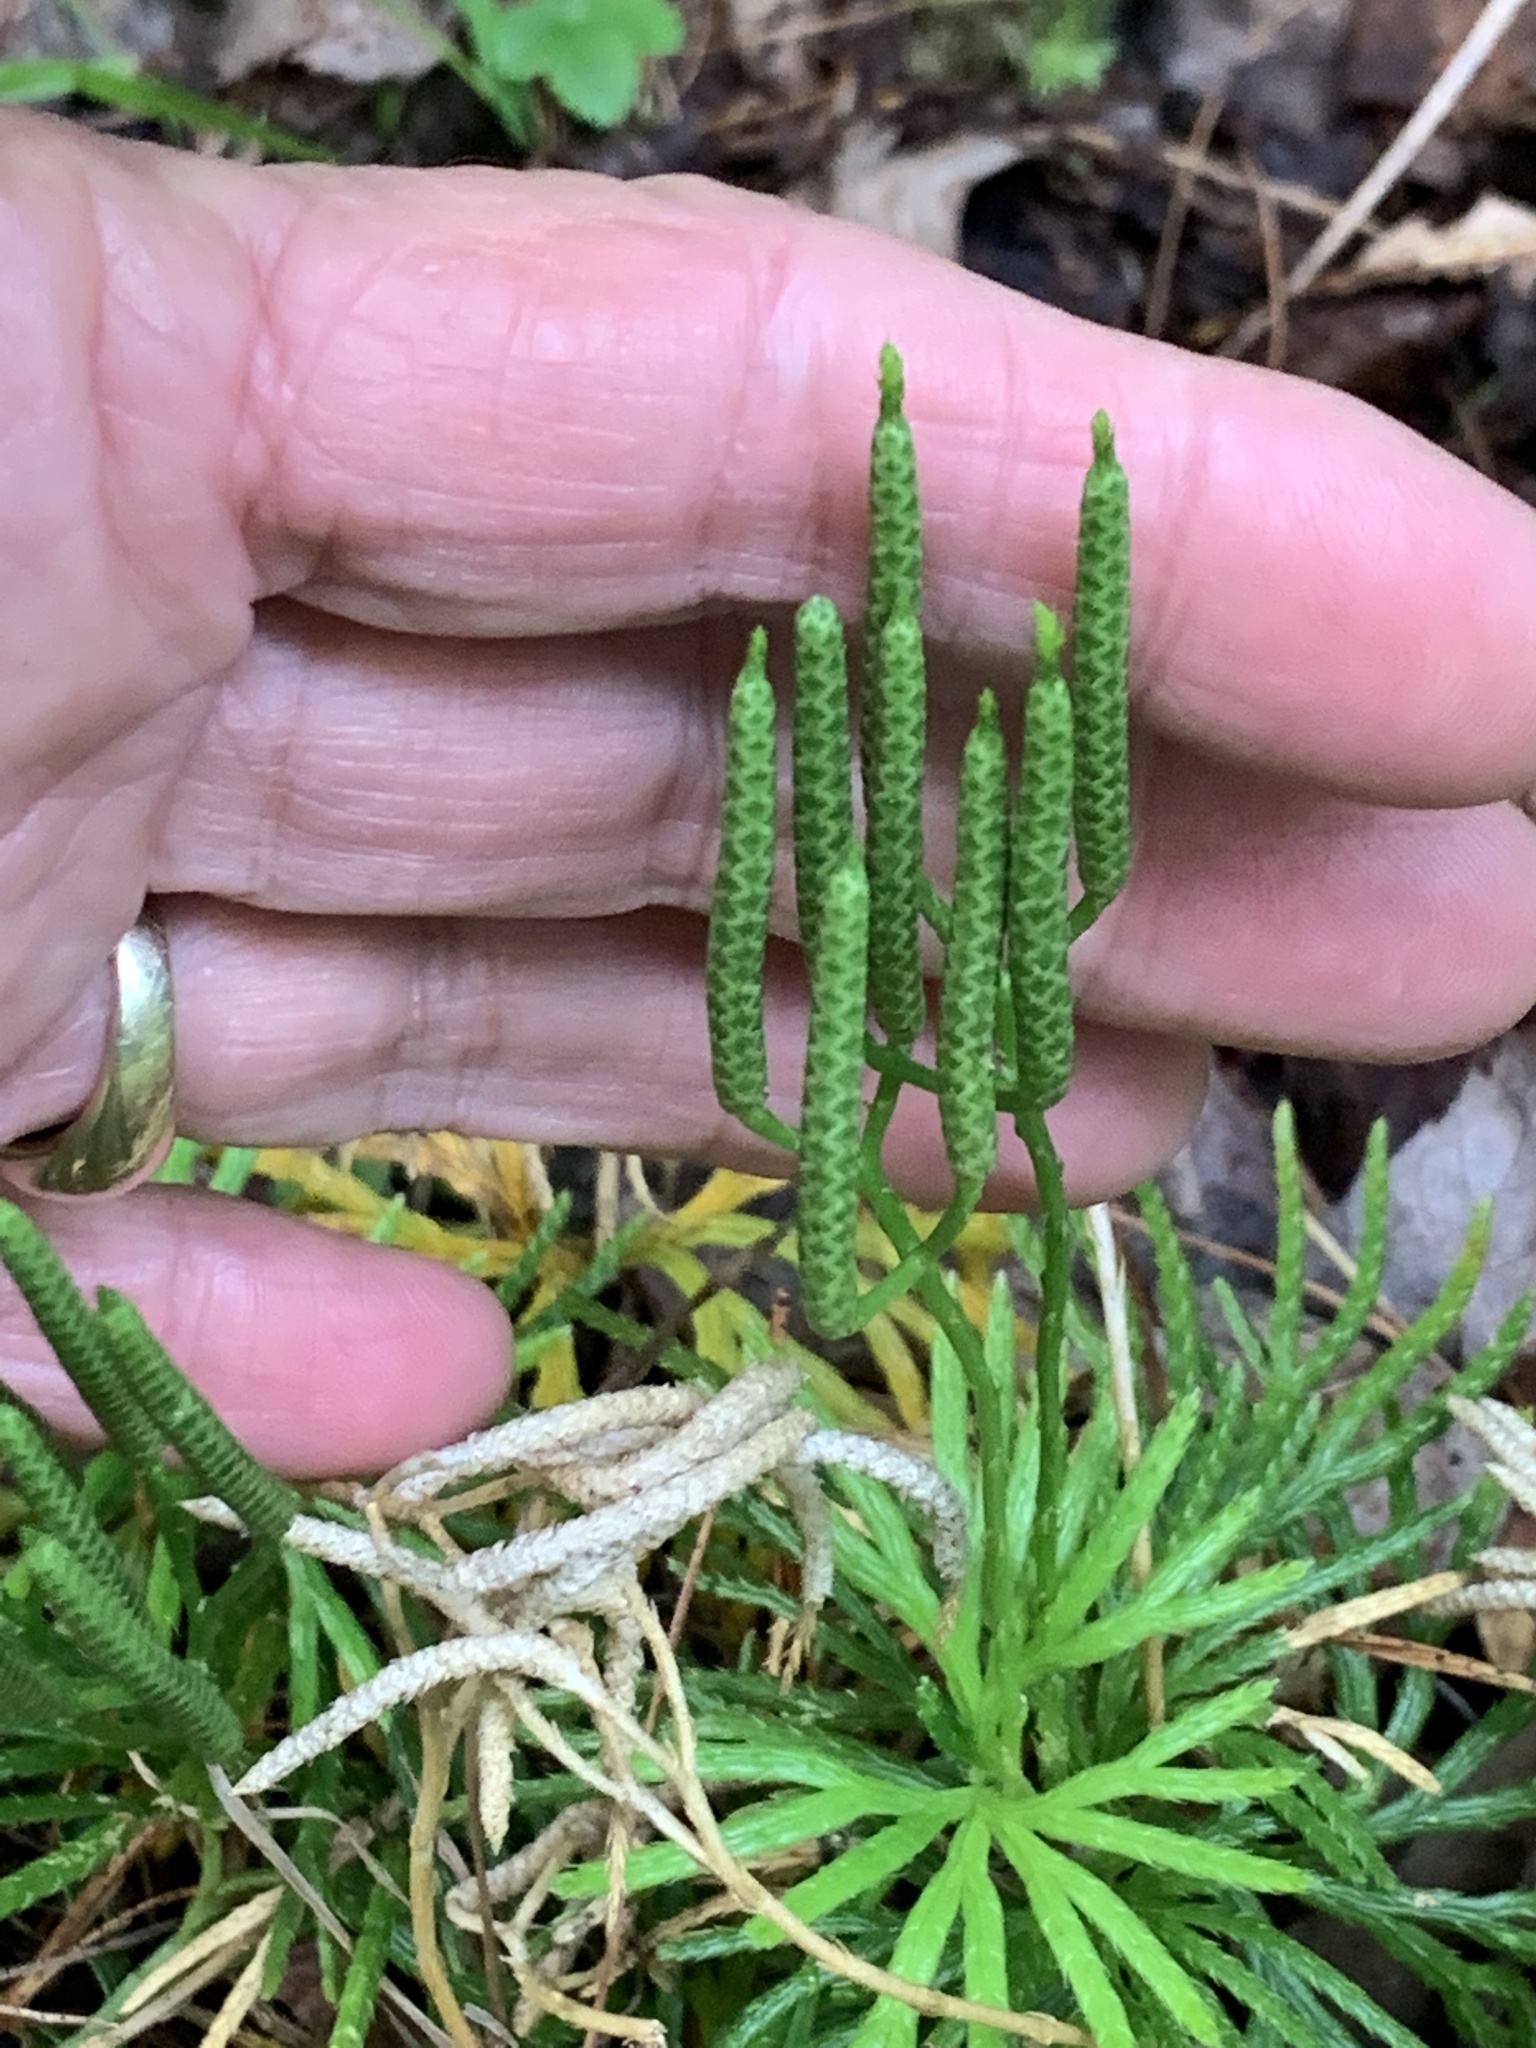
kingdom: Plantae
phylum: Tracheophyta
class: Lycopodiopsida
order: Lycopodiales
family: Lycopodiaceae
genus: Diphasiastrum
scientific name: Diphasiastrum digitatum
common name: Southern running-pine
